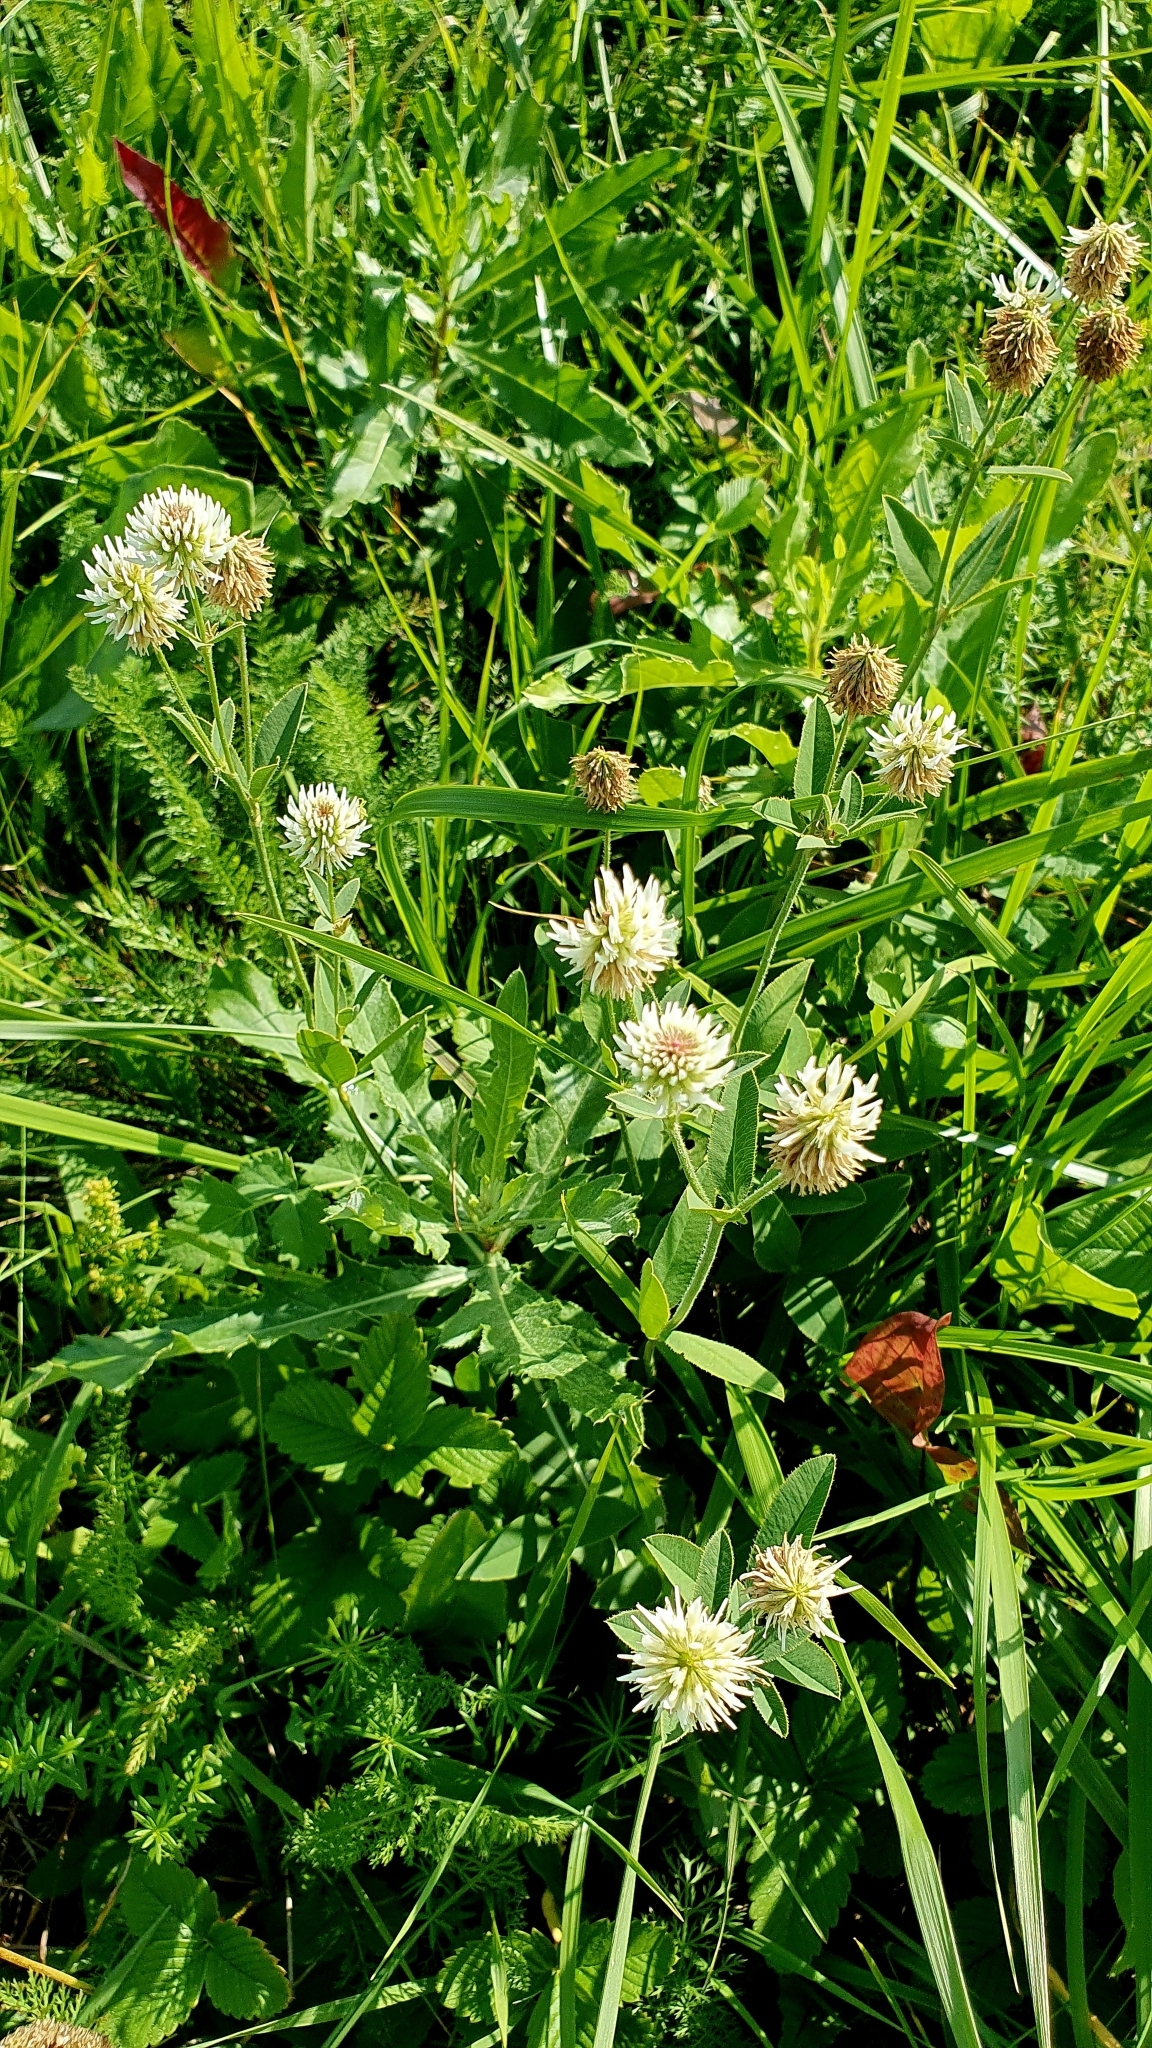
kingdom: Plantae
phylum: Tracheophyta
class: Magnoliopsida
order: Fabales
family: Fabaceae
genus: Trifolium
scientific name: Trifolium montanum
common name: Mountain clover
